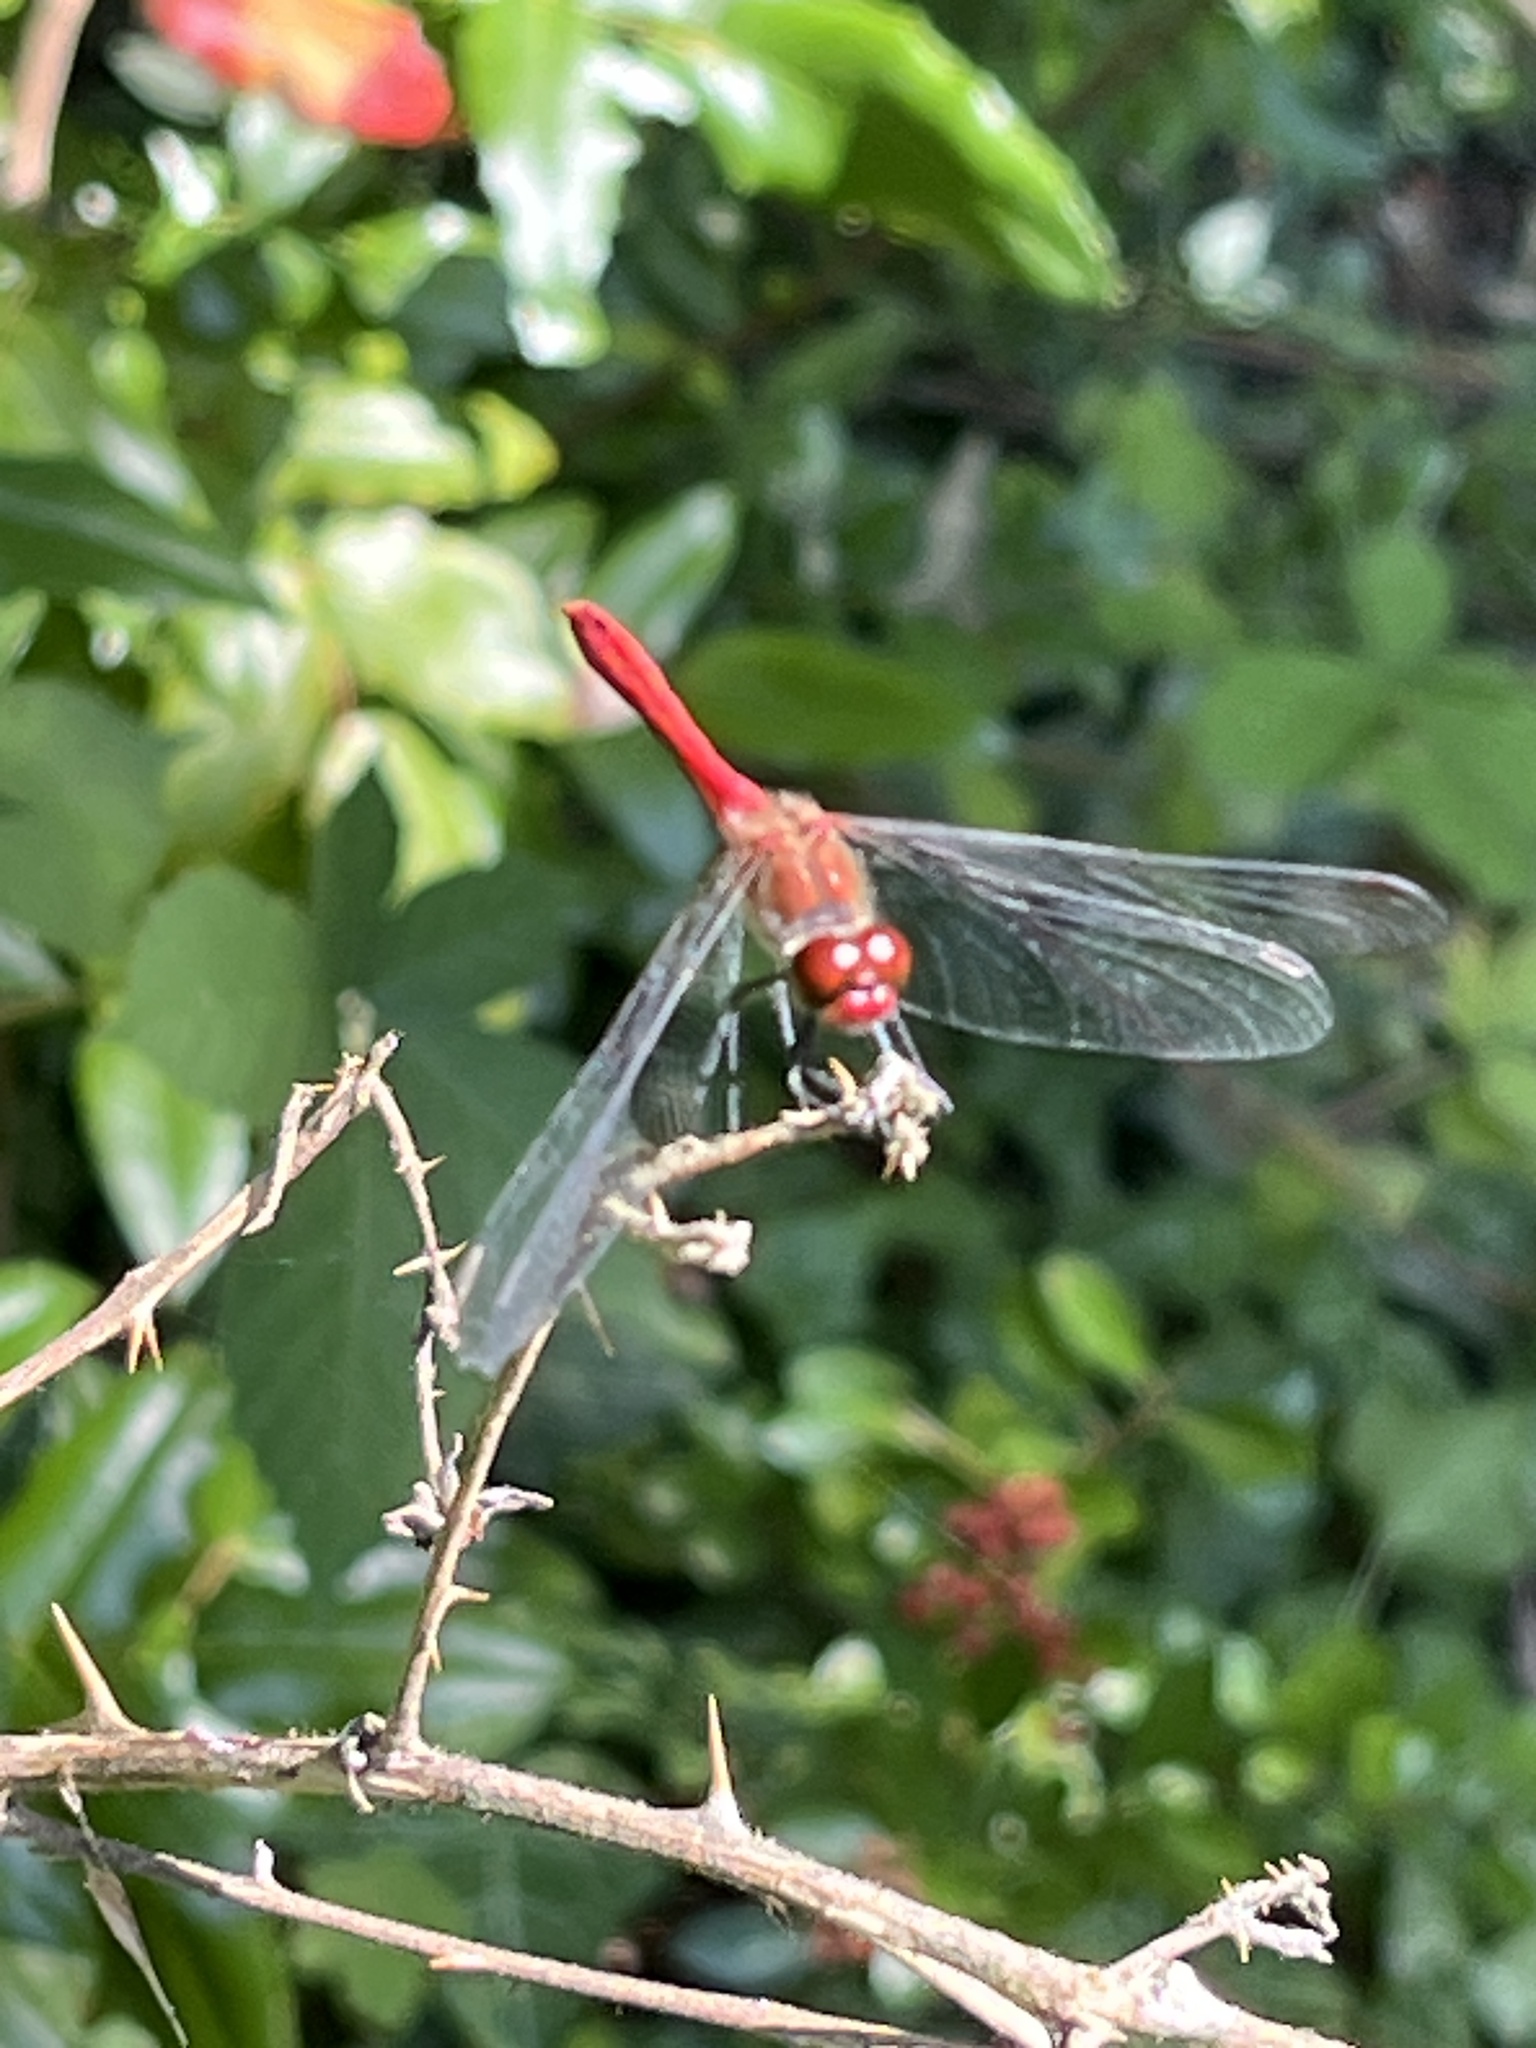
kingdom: Animalia
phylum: Arthropoda
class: Insecta
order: Odonata
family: Libellulidae
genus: Sympetrum
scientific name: Sympetrum sanguineum
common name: Ruddy darter
